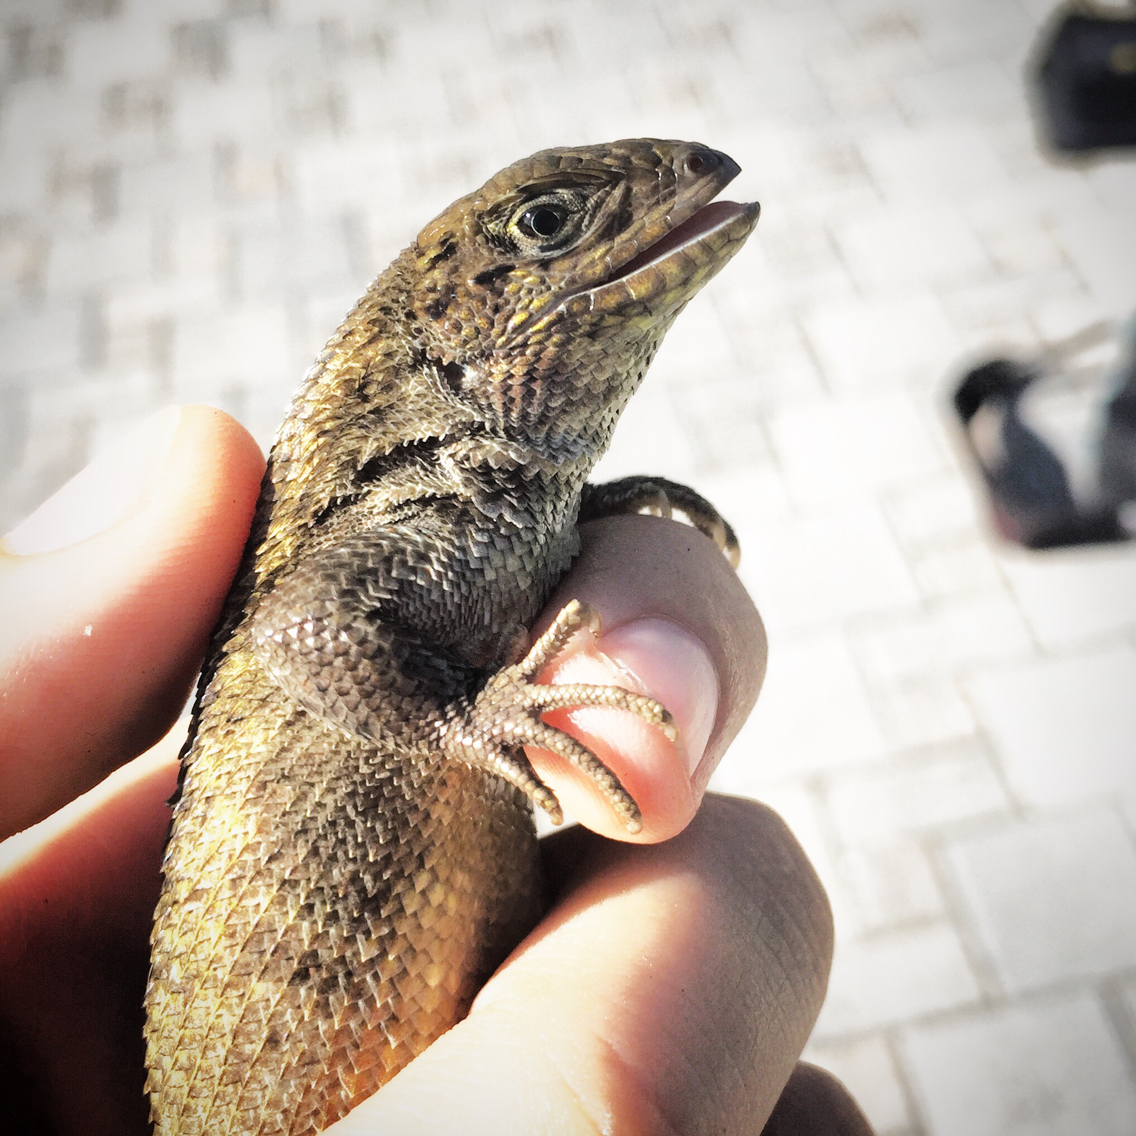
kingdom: Animalia
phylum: Chordata
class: Squamata
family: Leiocephalidae
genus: Leiocephalus
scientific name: Leiocephalus carinatus
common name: Northern curly-tailed lizard
